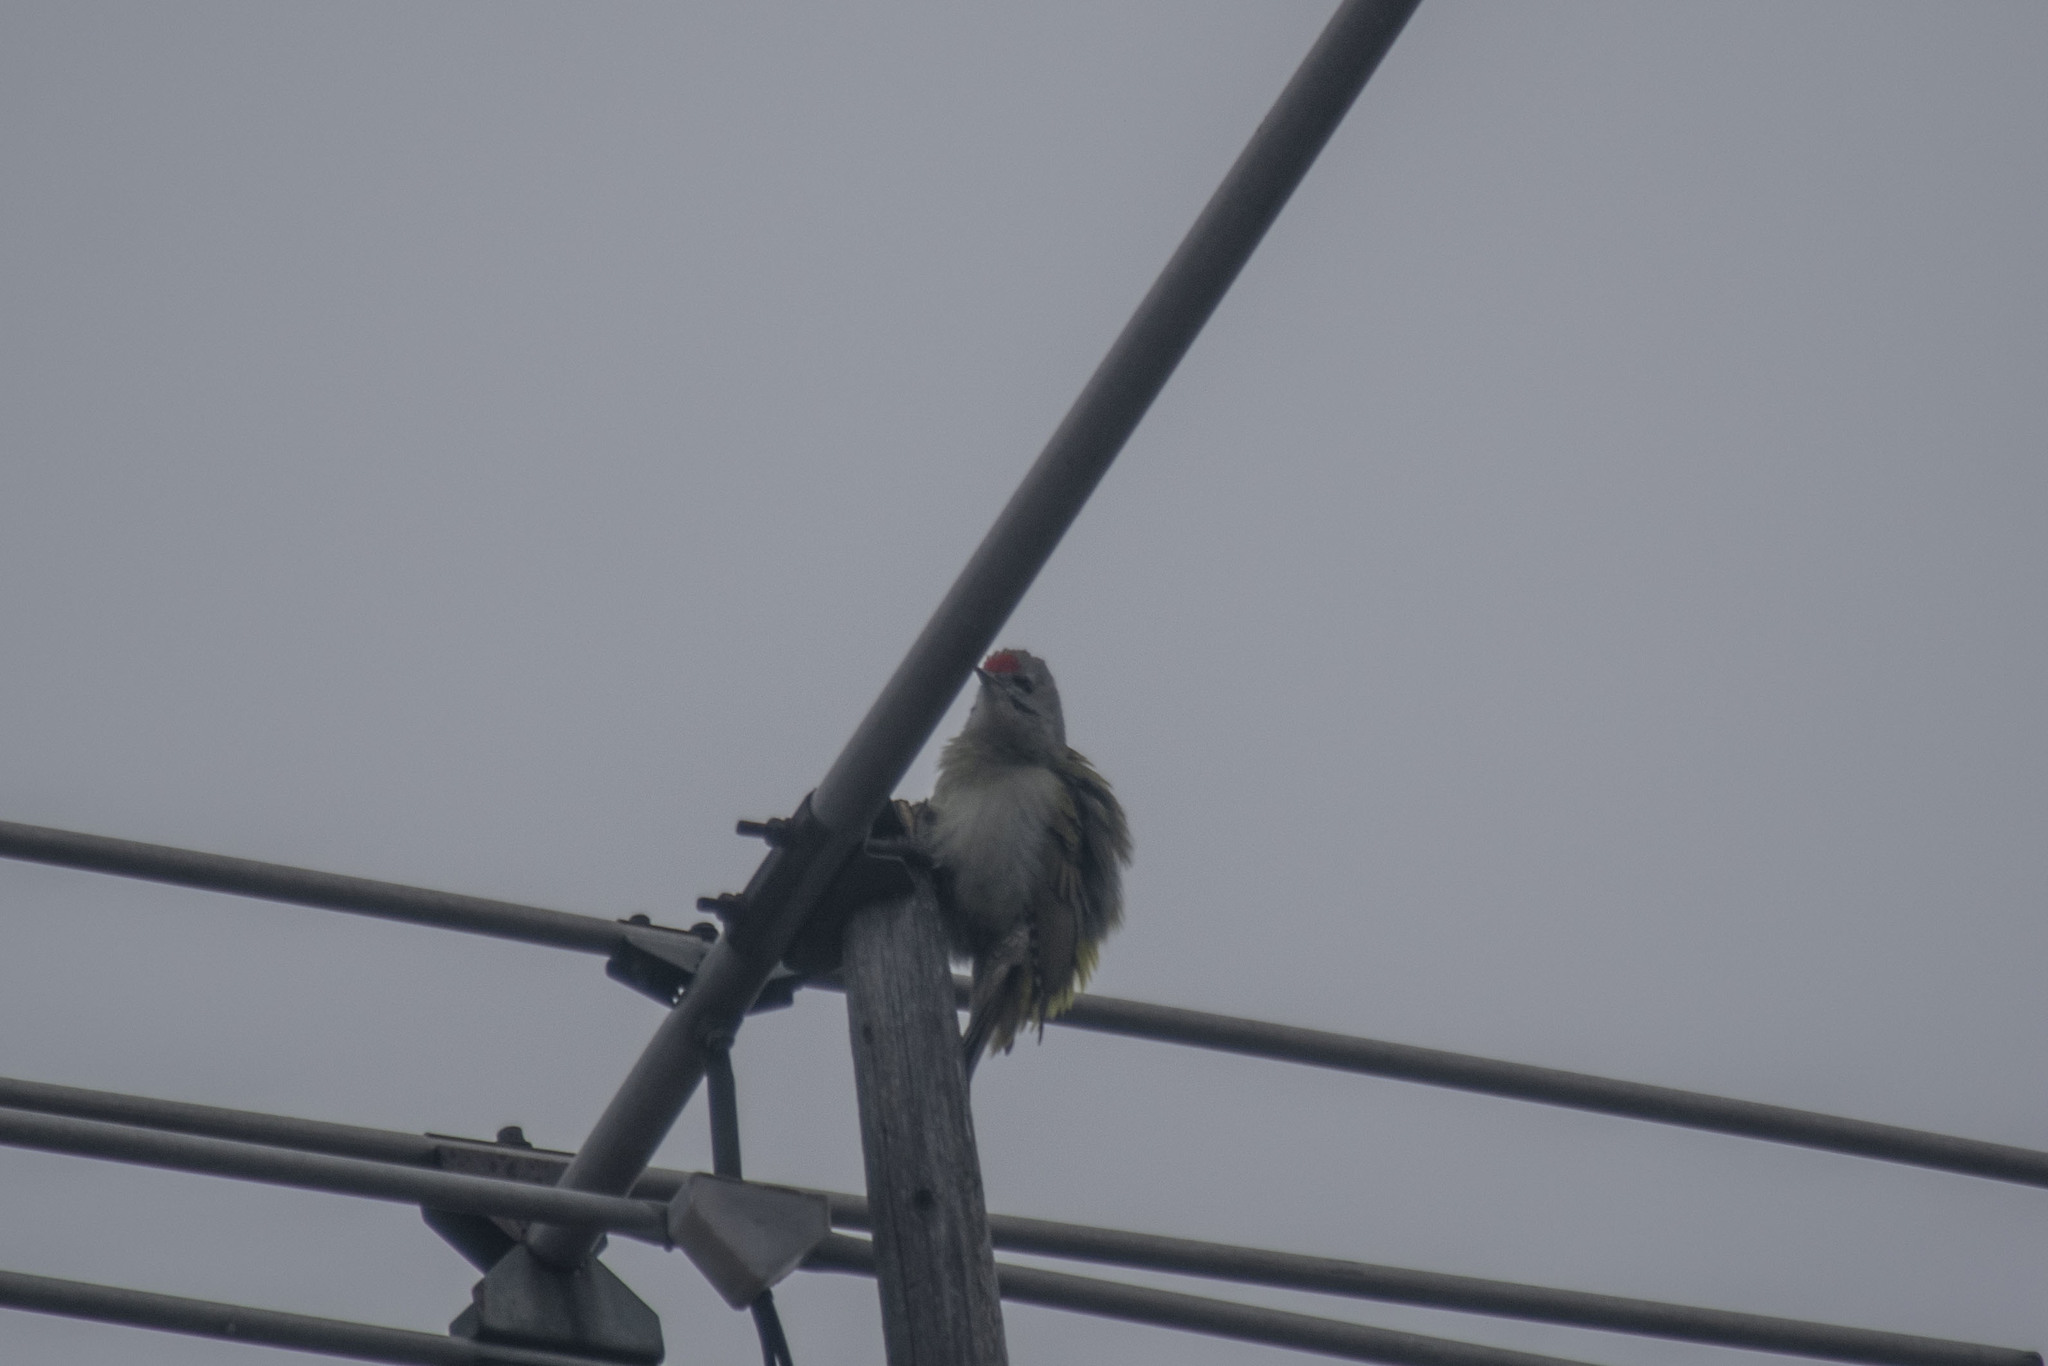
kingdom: Animalia
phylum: Chordata
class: Aves
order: Piciformes
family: Picidae
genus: Picus
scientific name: Picus canus
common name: Grey-headed woodpecker
